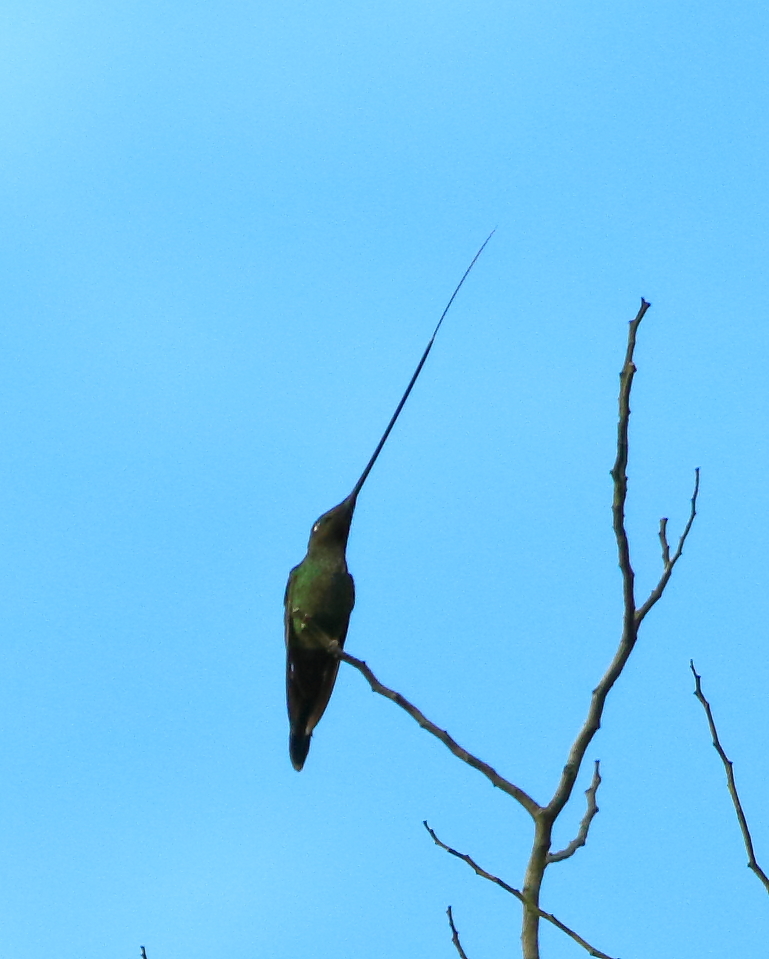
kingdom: Animalia
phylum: Chordata
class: Aves
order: Apodiformes
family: Trochilidae
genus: Ensifera
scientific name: Ensifera ensifera
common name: Sword-billed hummingbird
